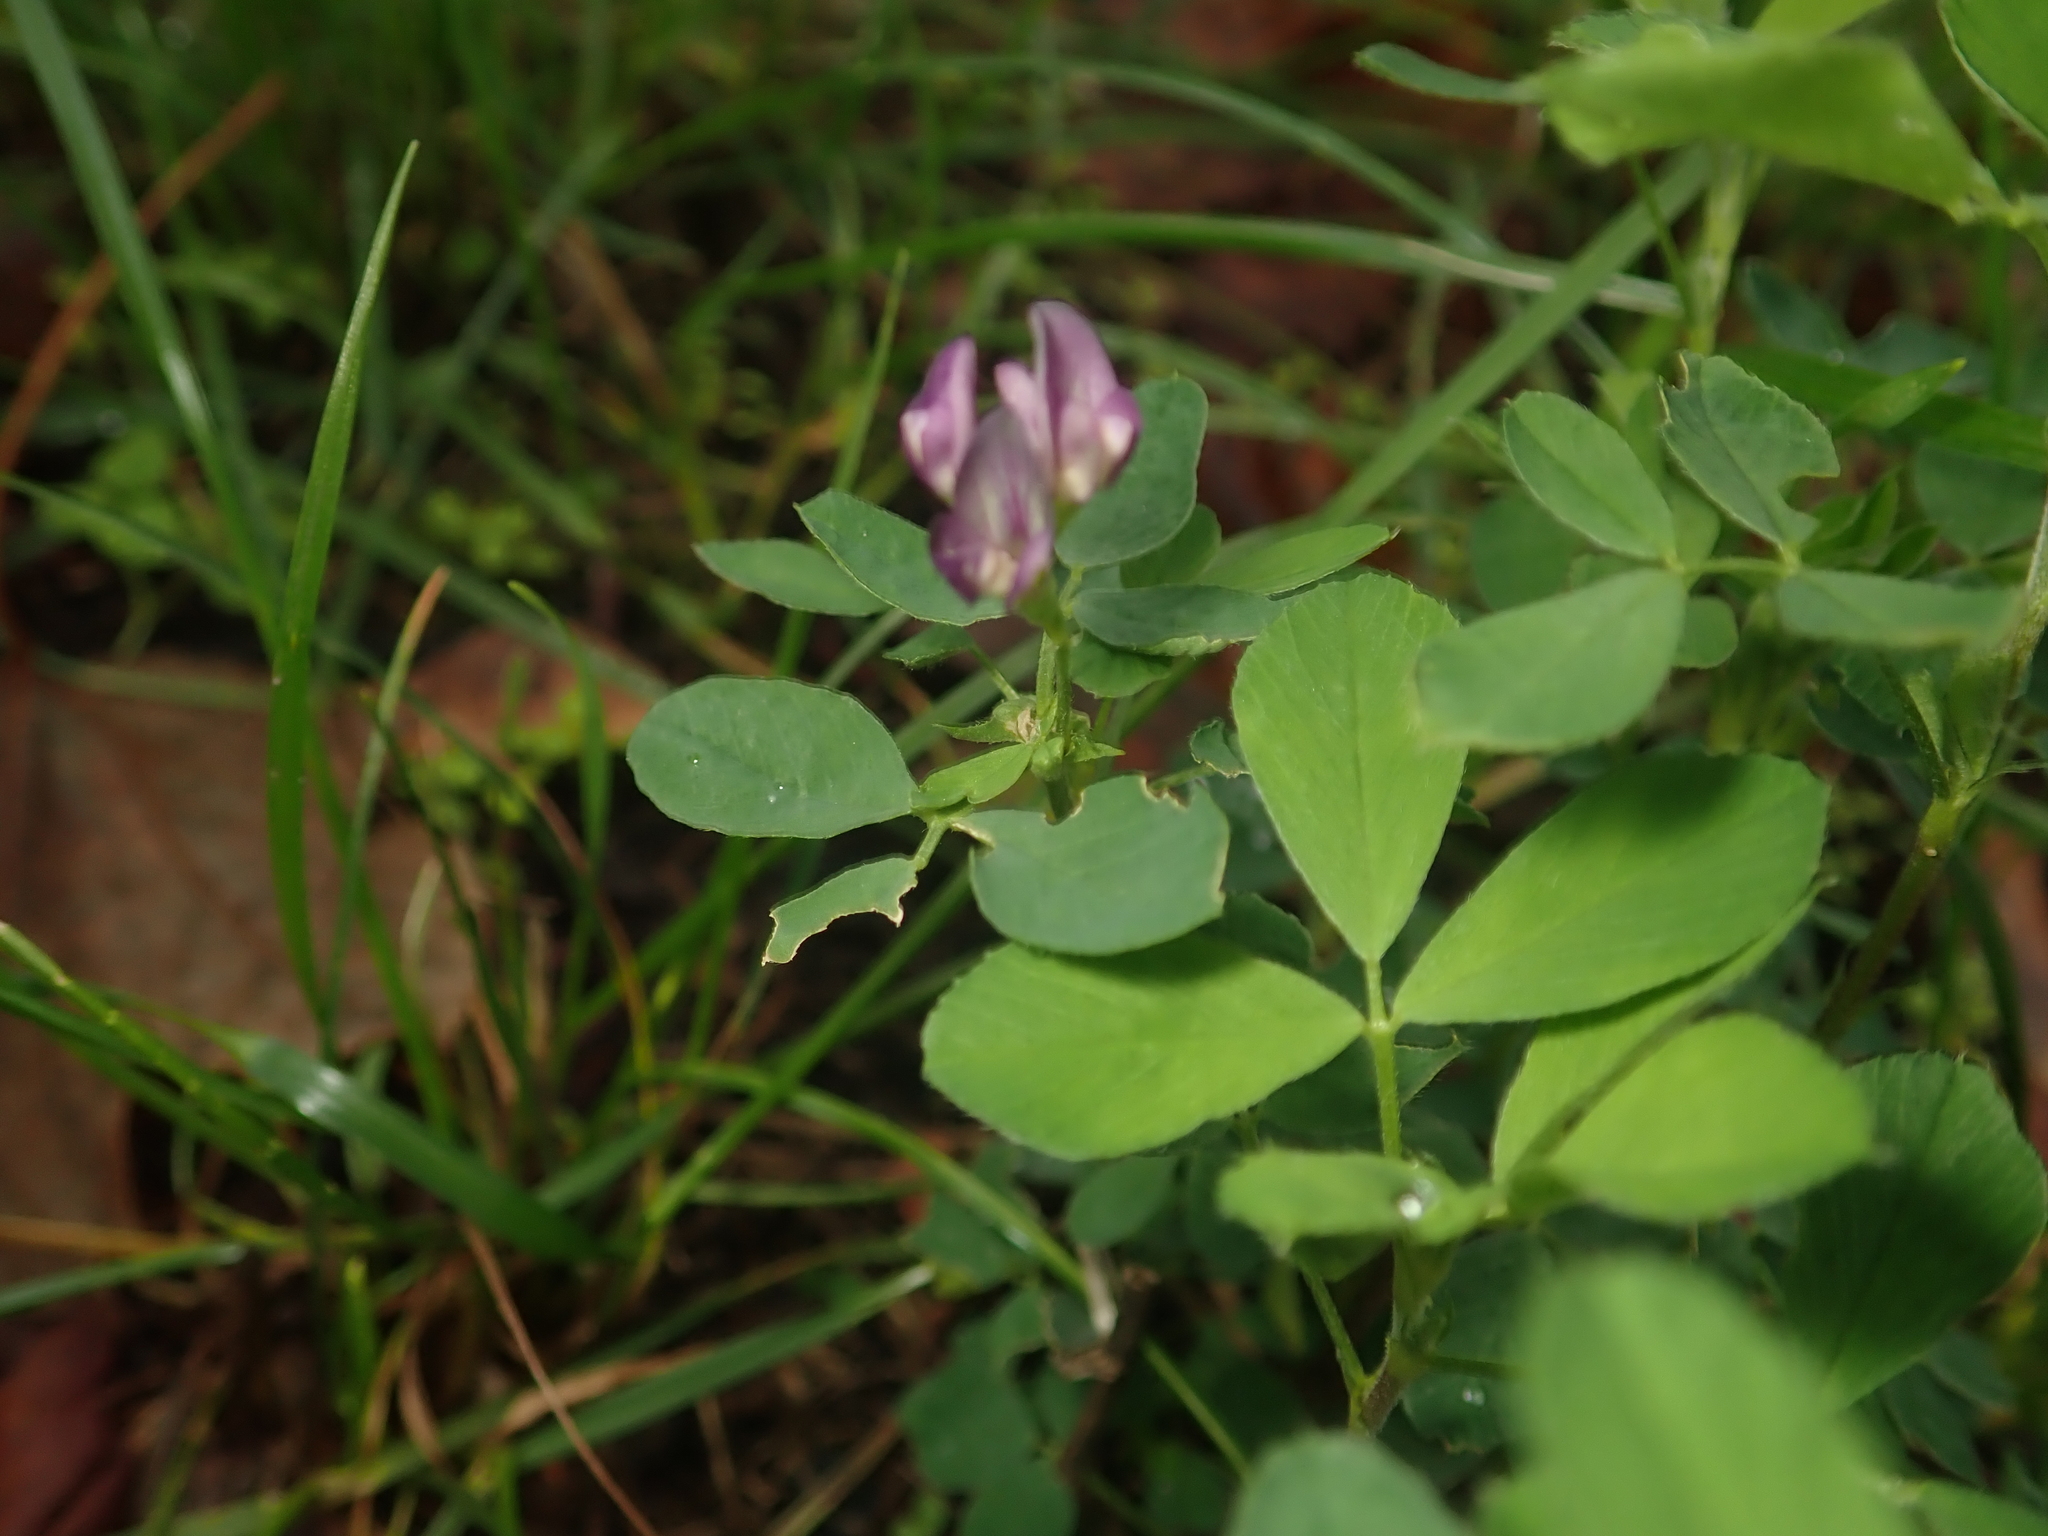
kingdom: Plantae
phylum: Tracheophyta
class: Magnoliopsida
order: Fabales
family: Fabaceae
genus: Medicago
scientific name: Medicago varia
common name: Sand lucerne
